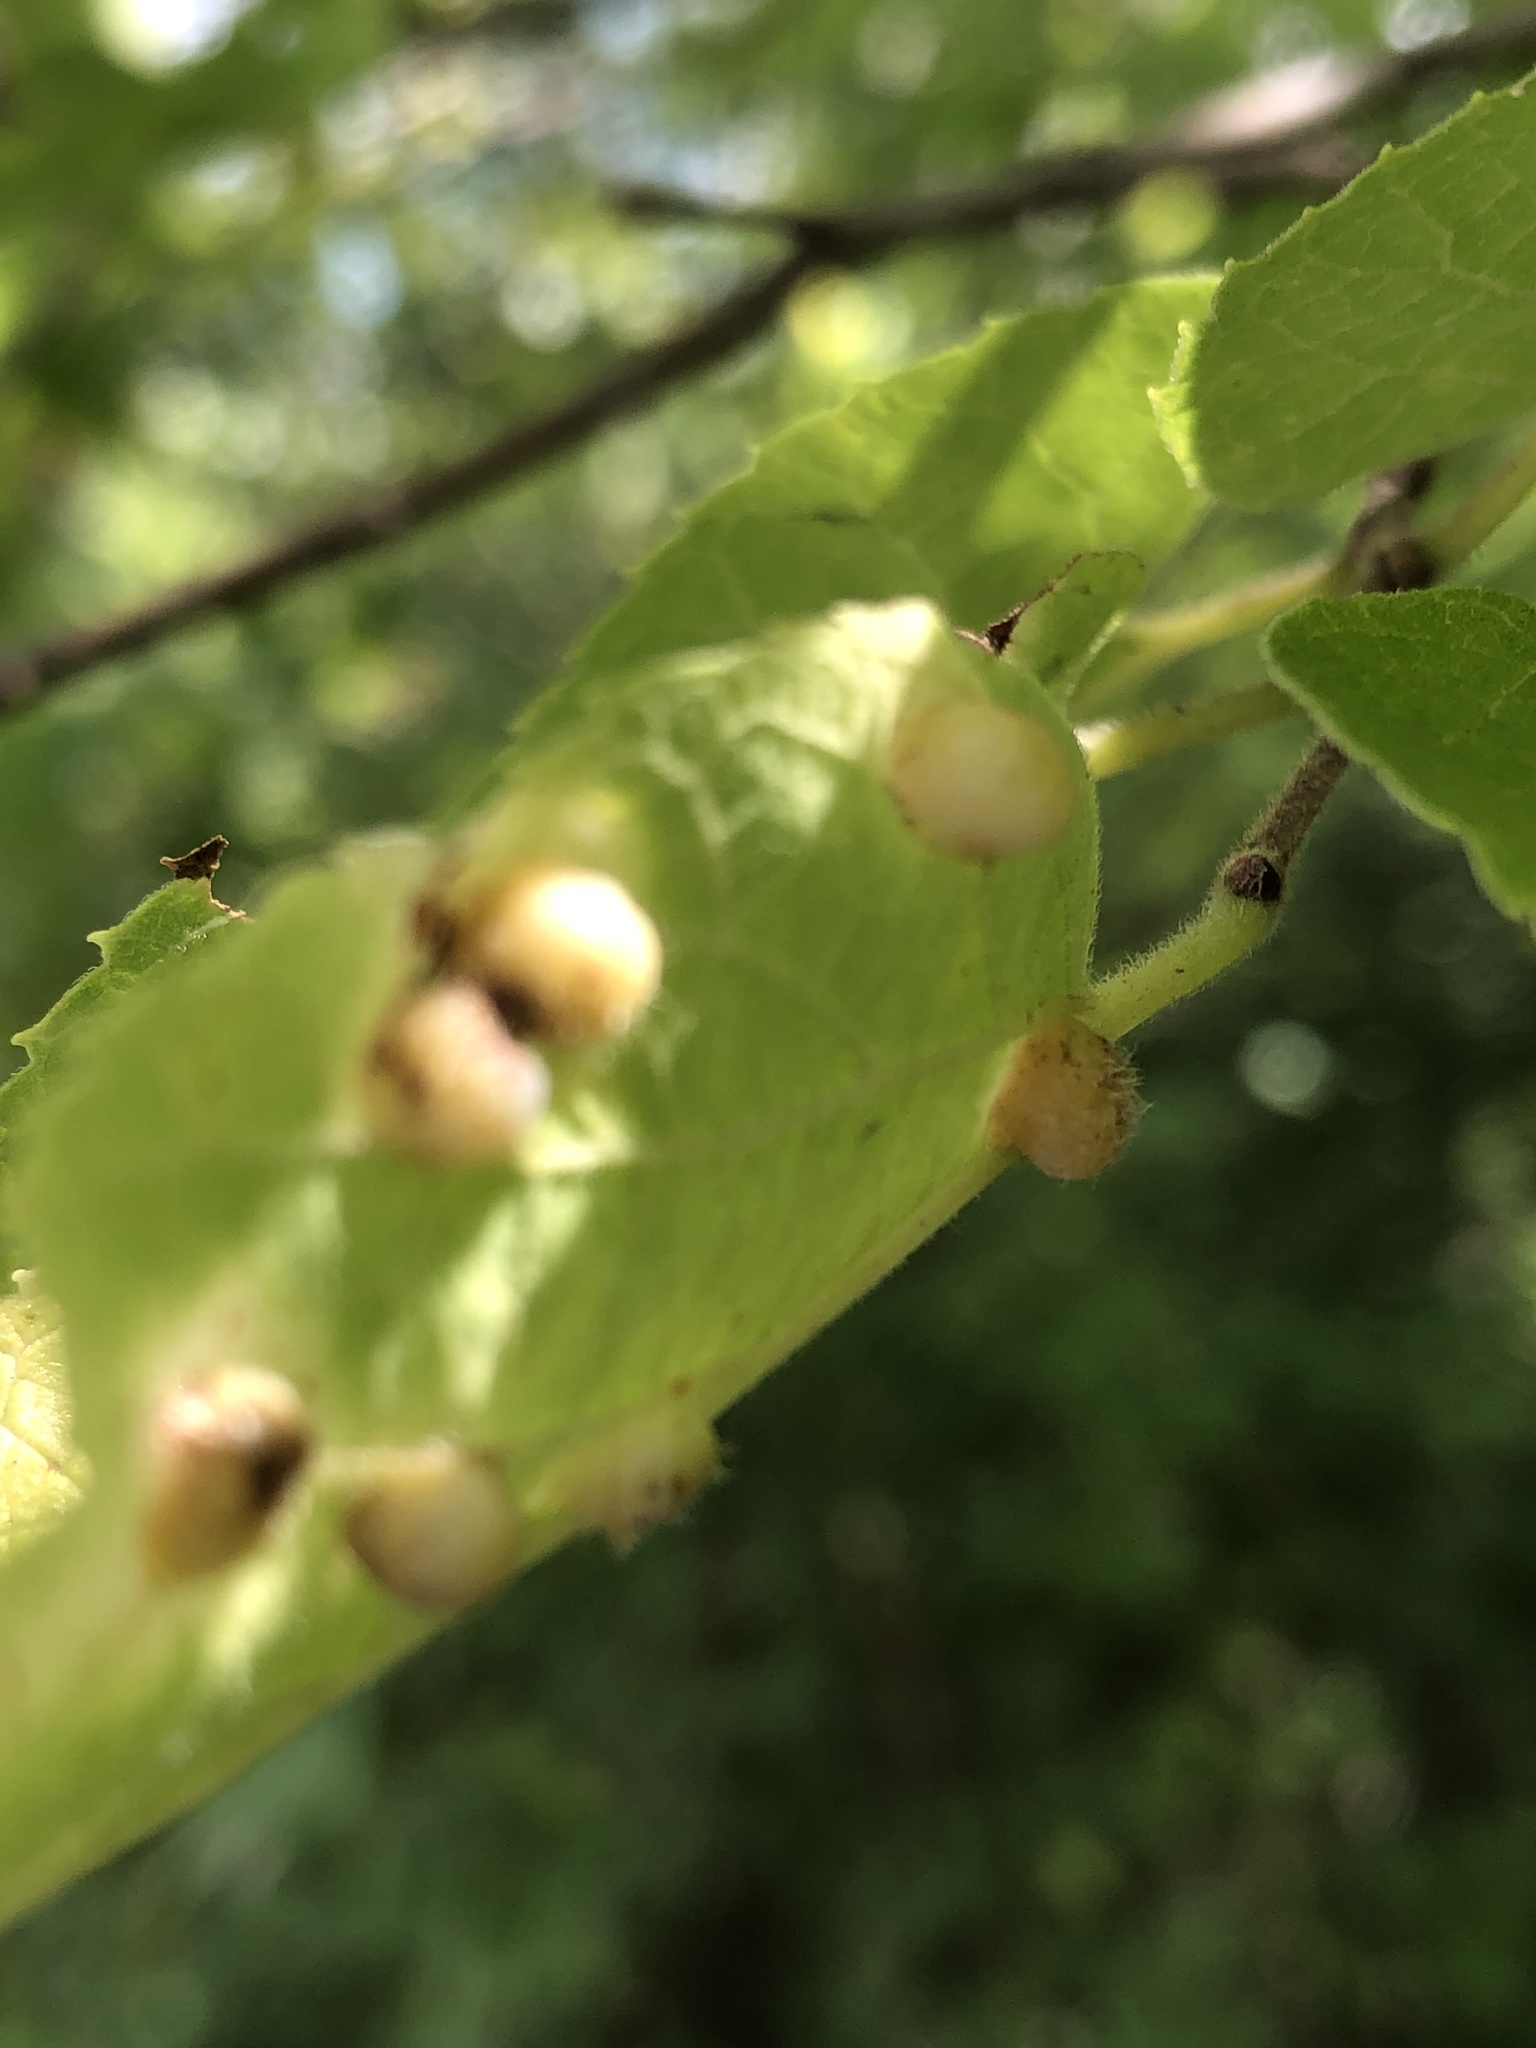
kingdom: Animalia
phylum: Arthropoda
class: Insecta
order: Hemiptera
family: Aphalaridae
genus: Pachypsylla
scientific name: Pachypsylla celtidismamma
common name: Hackberry nipplegall psyllid
